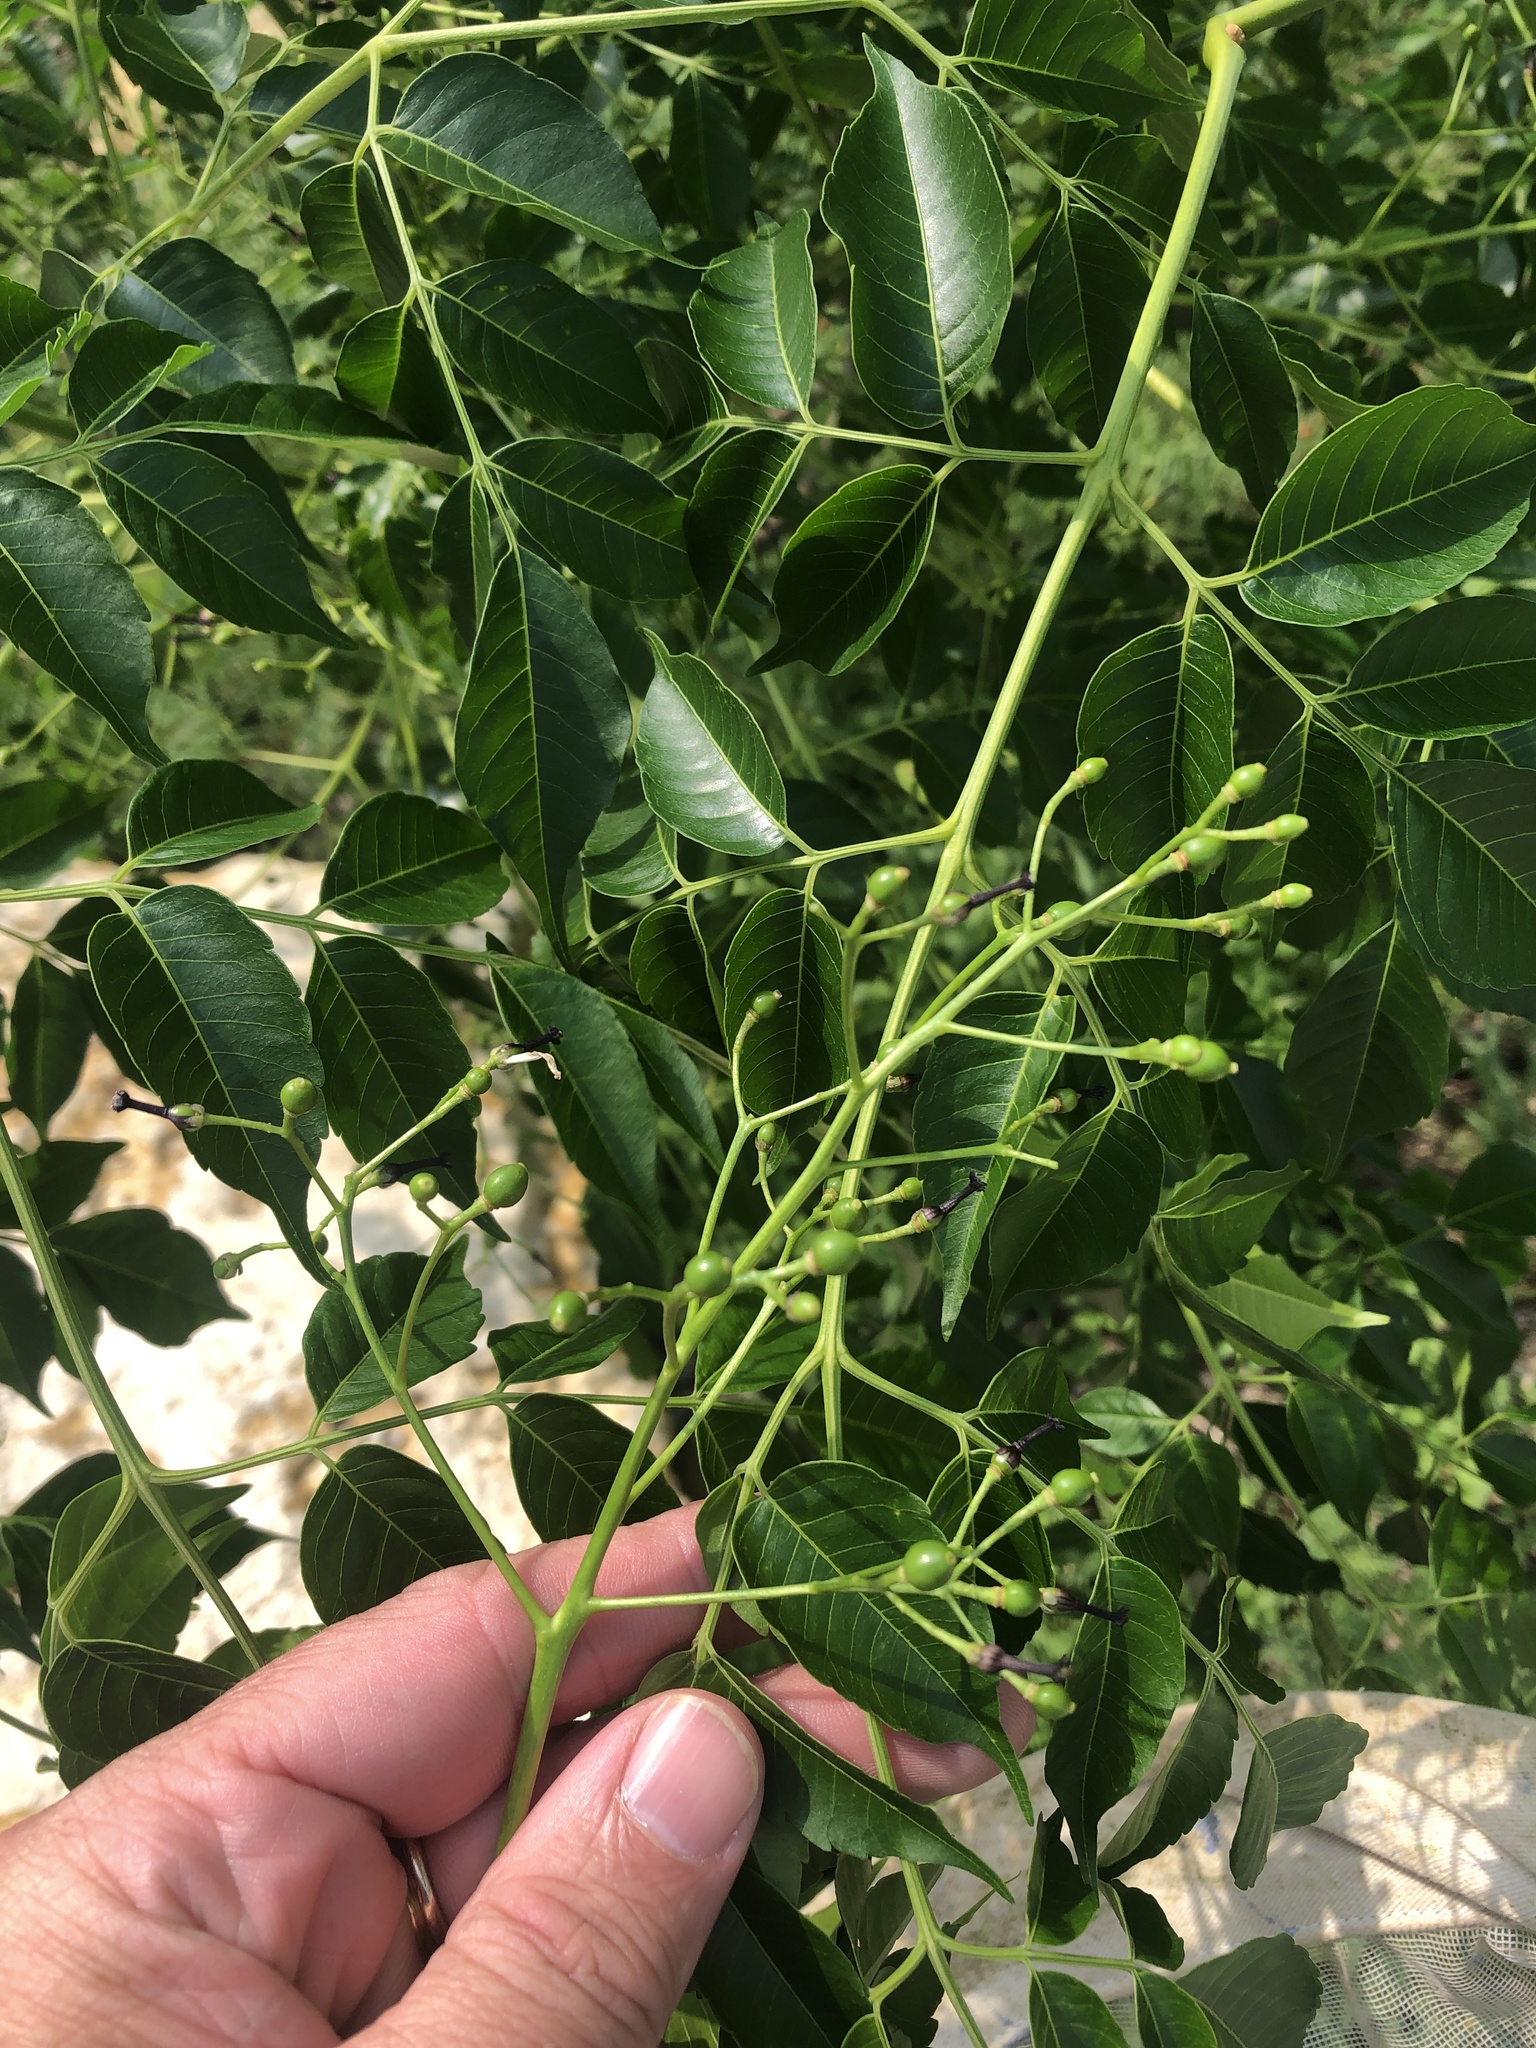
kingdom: Plantae
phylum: Tracheophyta
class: Magnoliopsida
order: Sapindales
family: Meliaceae
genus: Melia
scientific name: Melia azedarach
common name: Chinaberrytree
